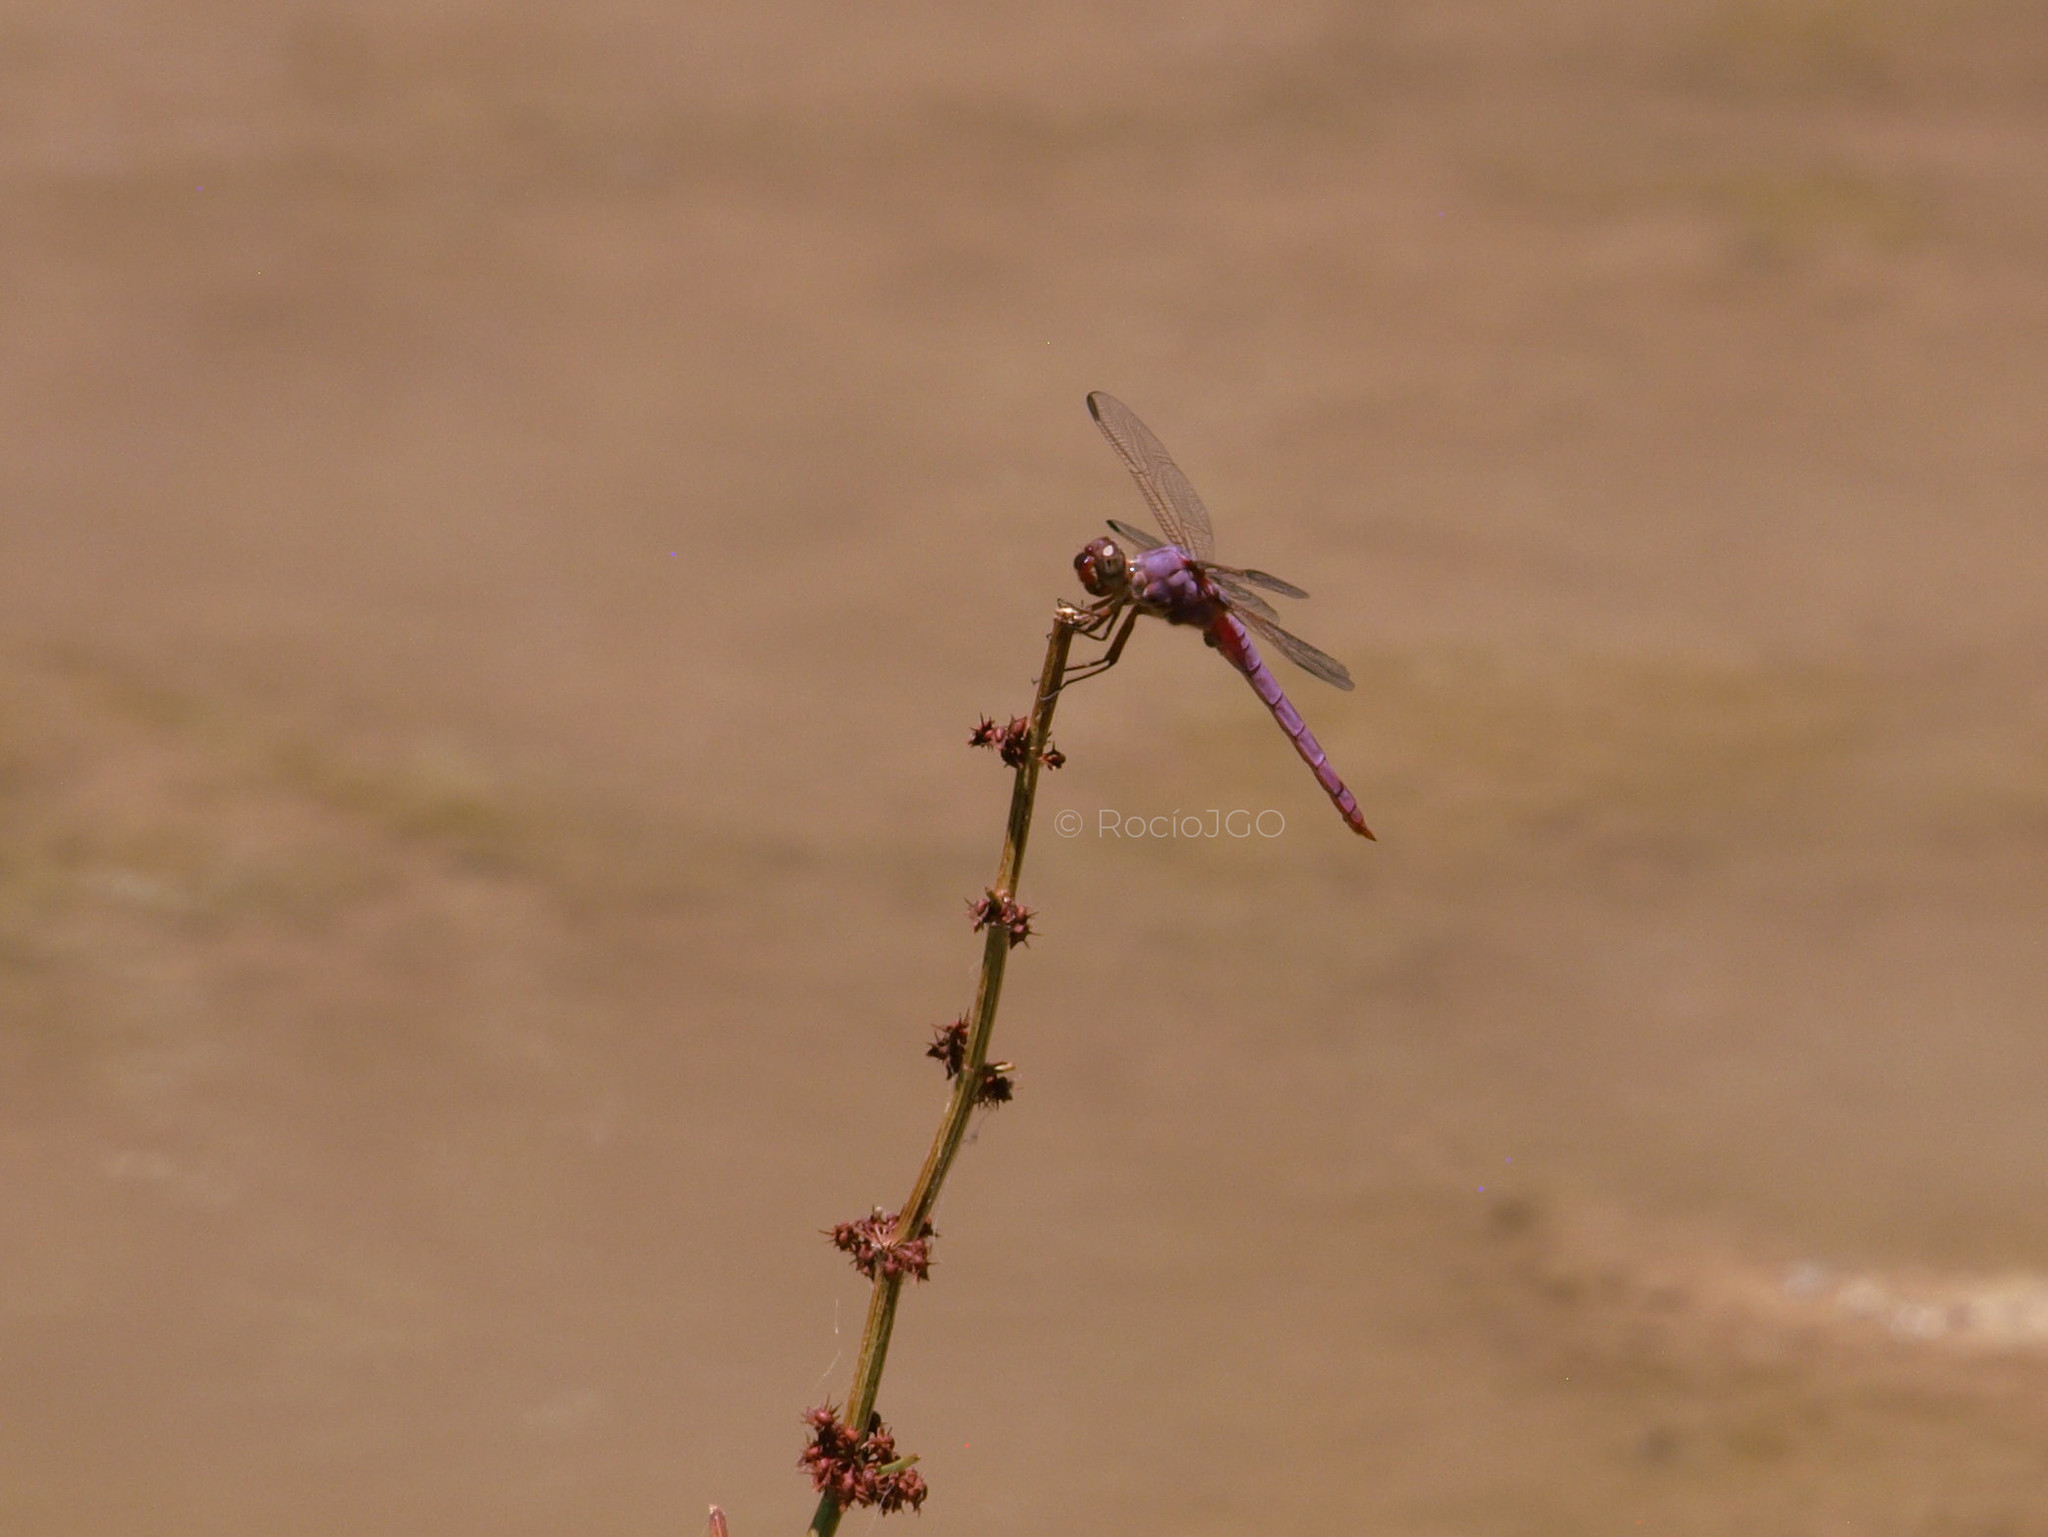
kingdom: Animalia
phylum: Arthropoda
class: Insecta
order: Odonata
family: Libellulidae
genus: Orthemis
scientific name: Orthemis ferruginea
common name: Roseate skimmer
